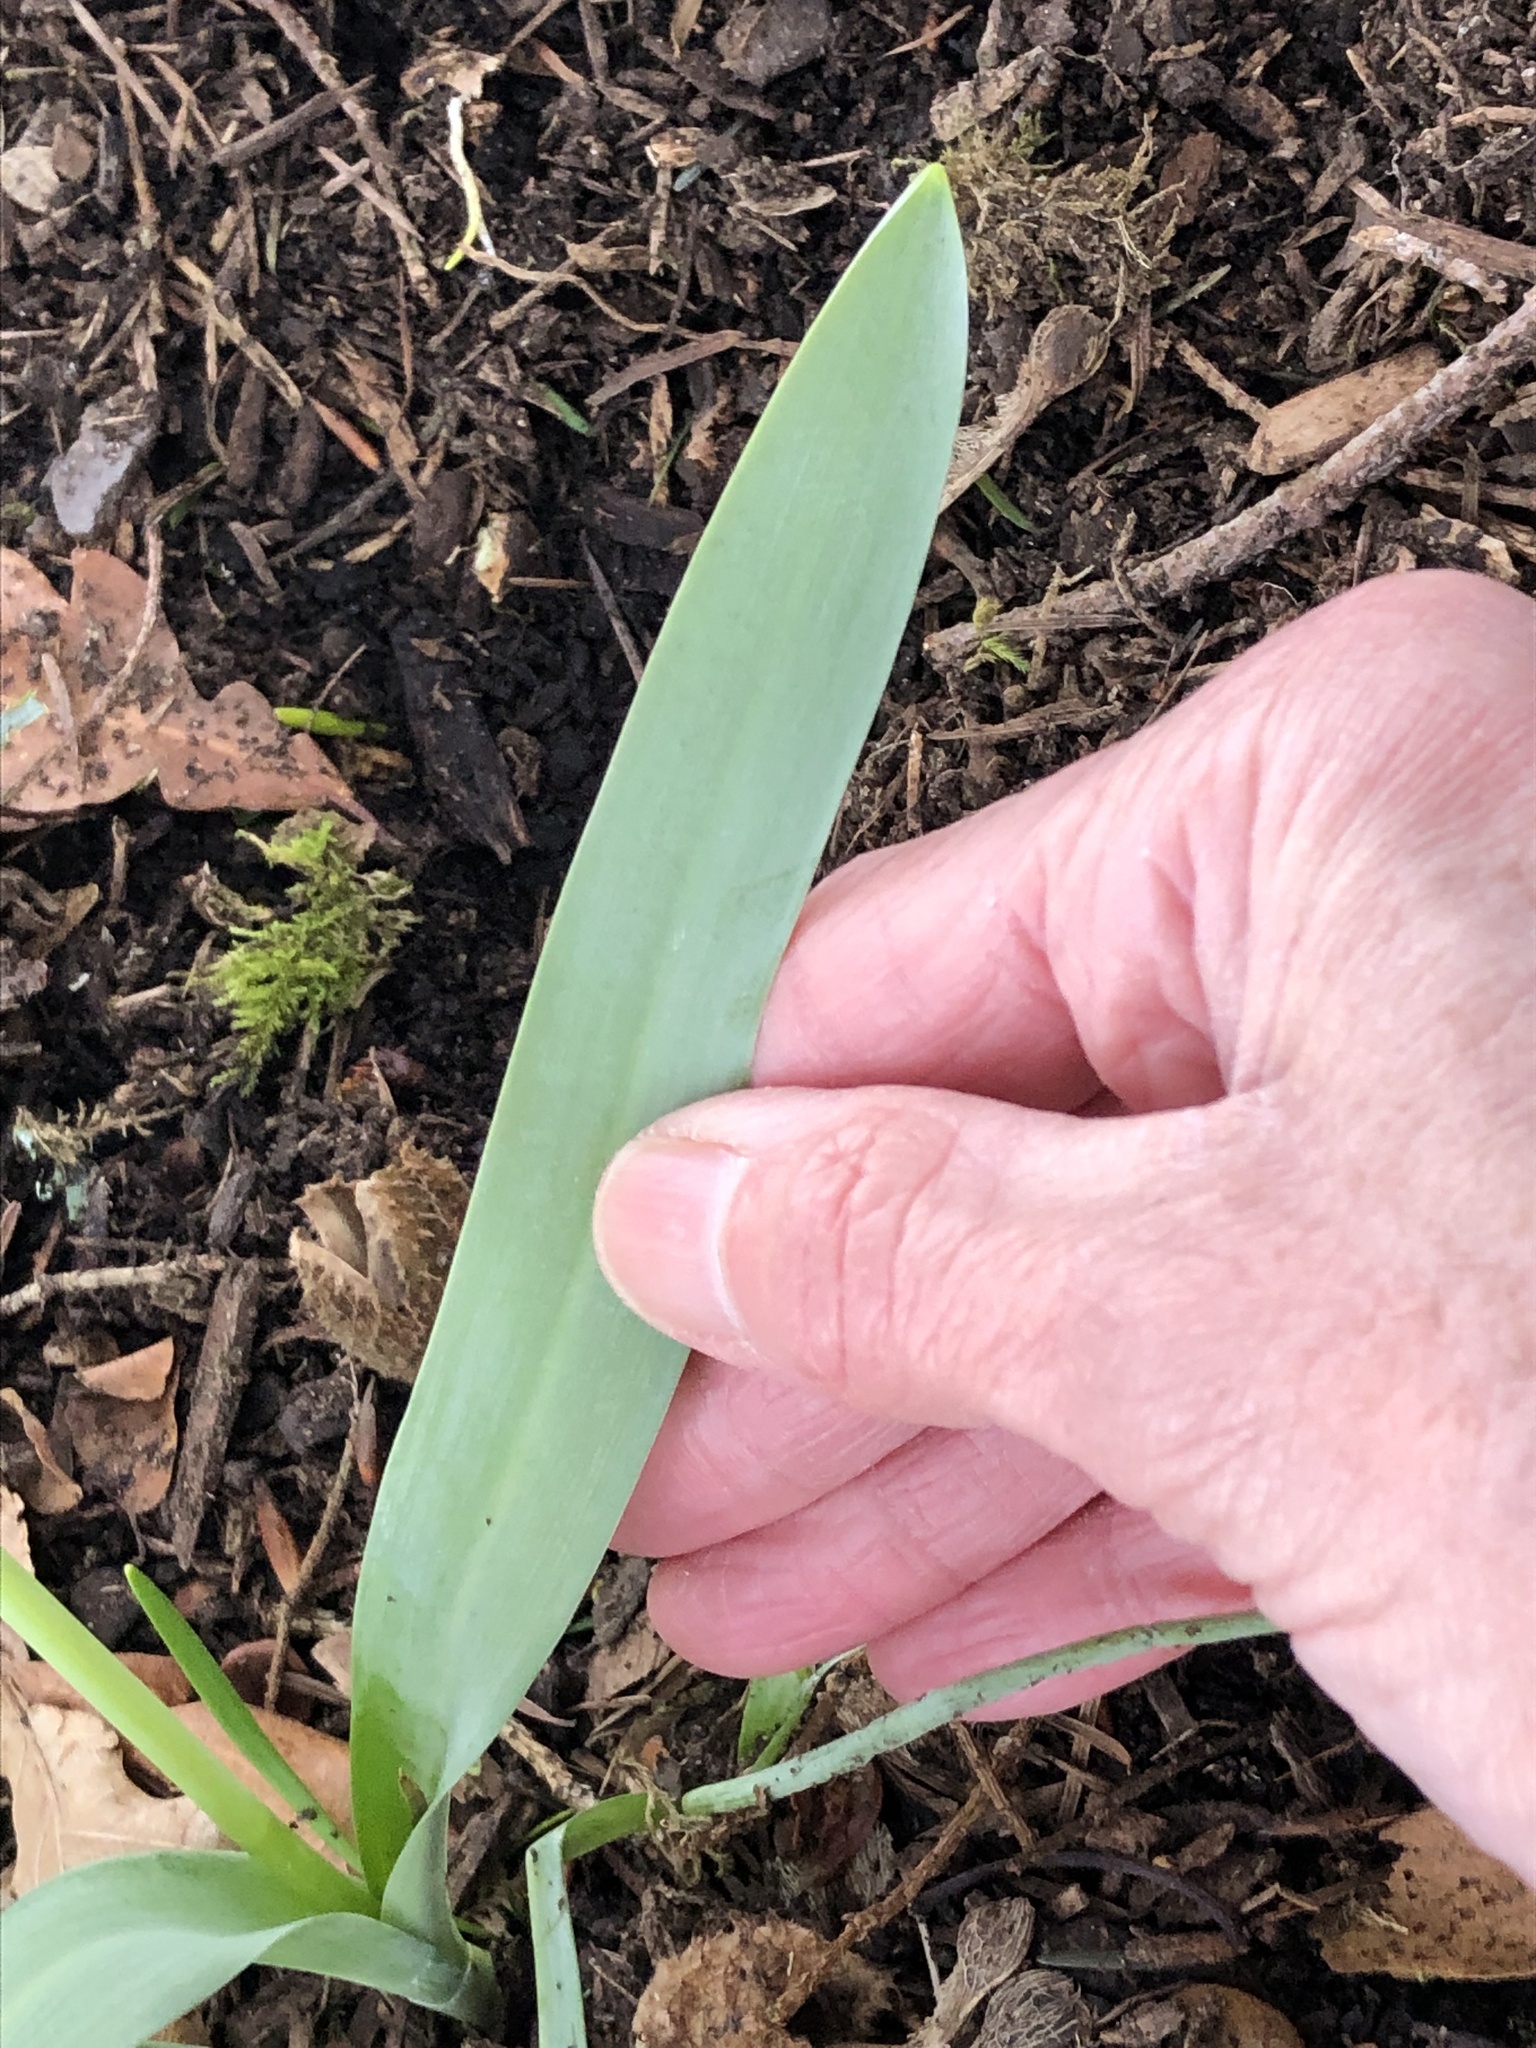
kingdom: Plantae
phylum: Tracheophyta
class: Liliopsida
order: Asparagales
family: Amaryllidaceae
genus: Galanthus
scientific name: Galanthus elwesii
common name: Greater snowdrop
